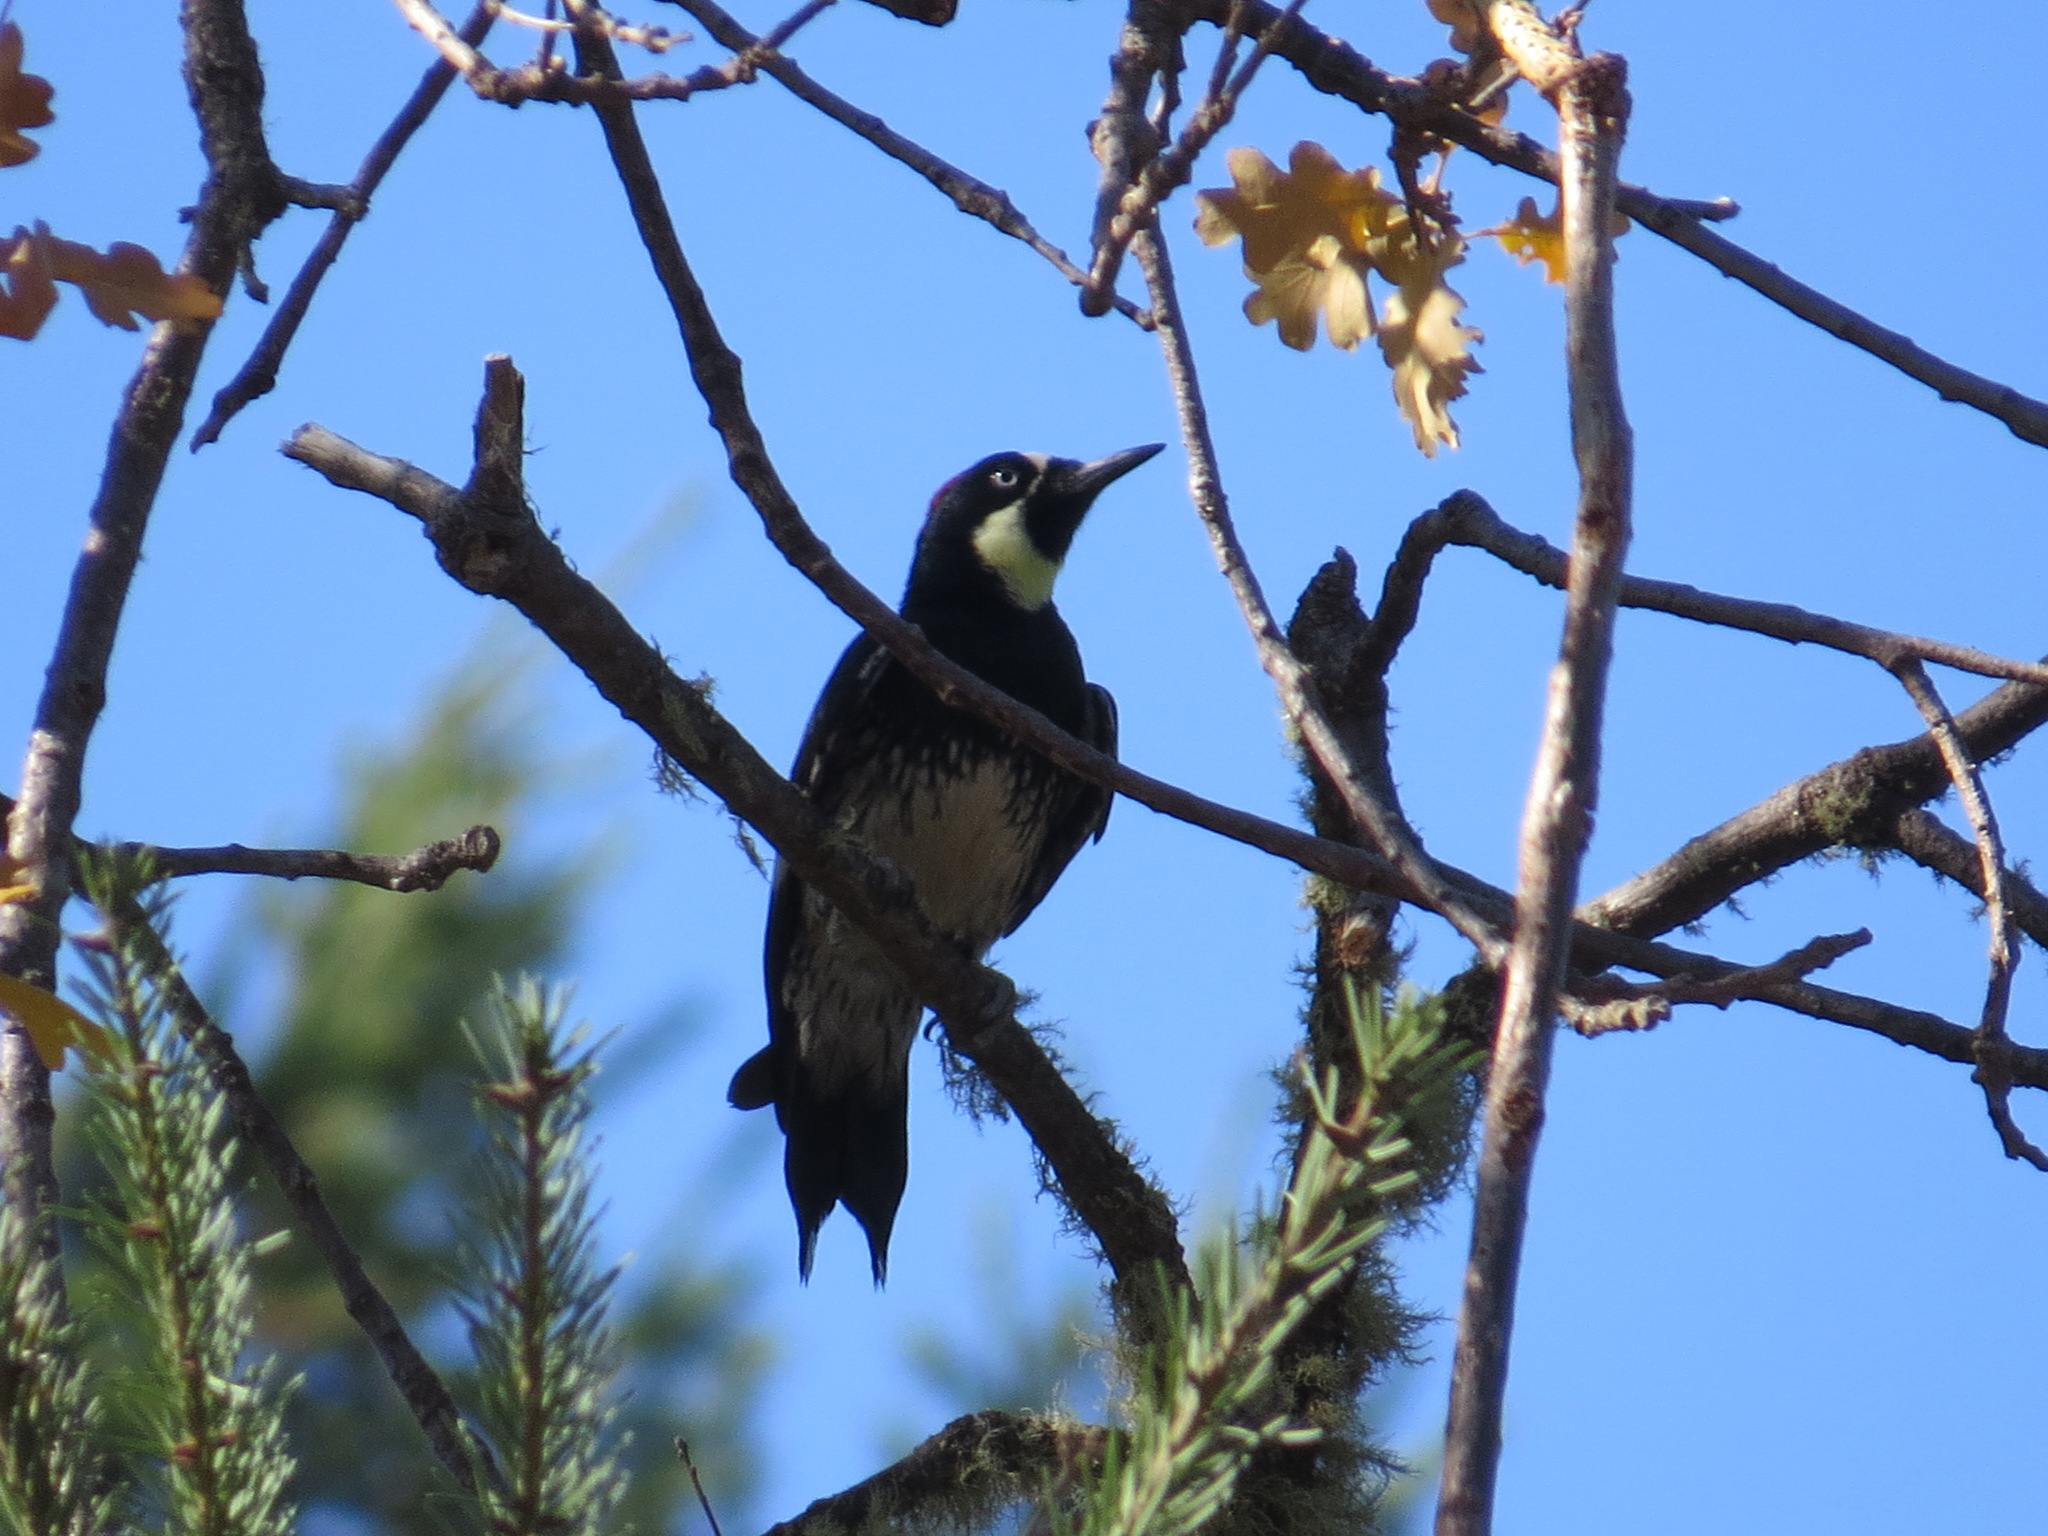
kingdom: Animalia
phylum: Chordata
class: Aves
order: Piciformes
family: Picidae
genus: Melanerpes
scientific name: Melanerpes formicivorus
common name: Acorn woodpecker
